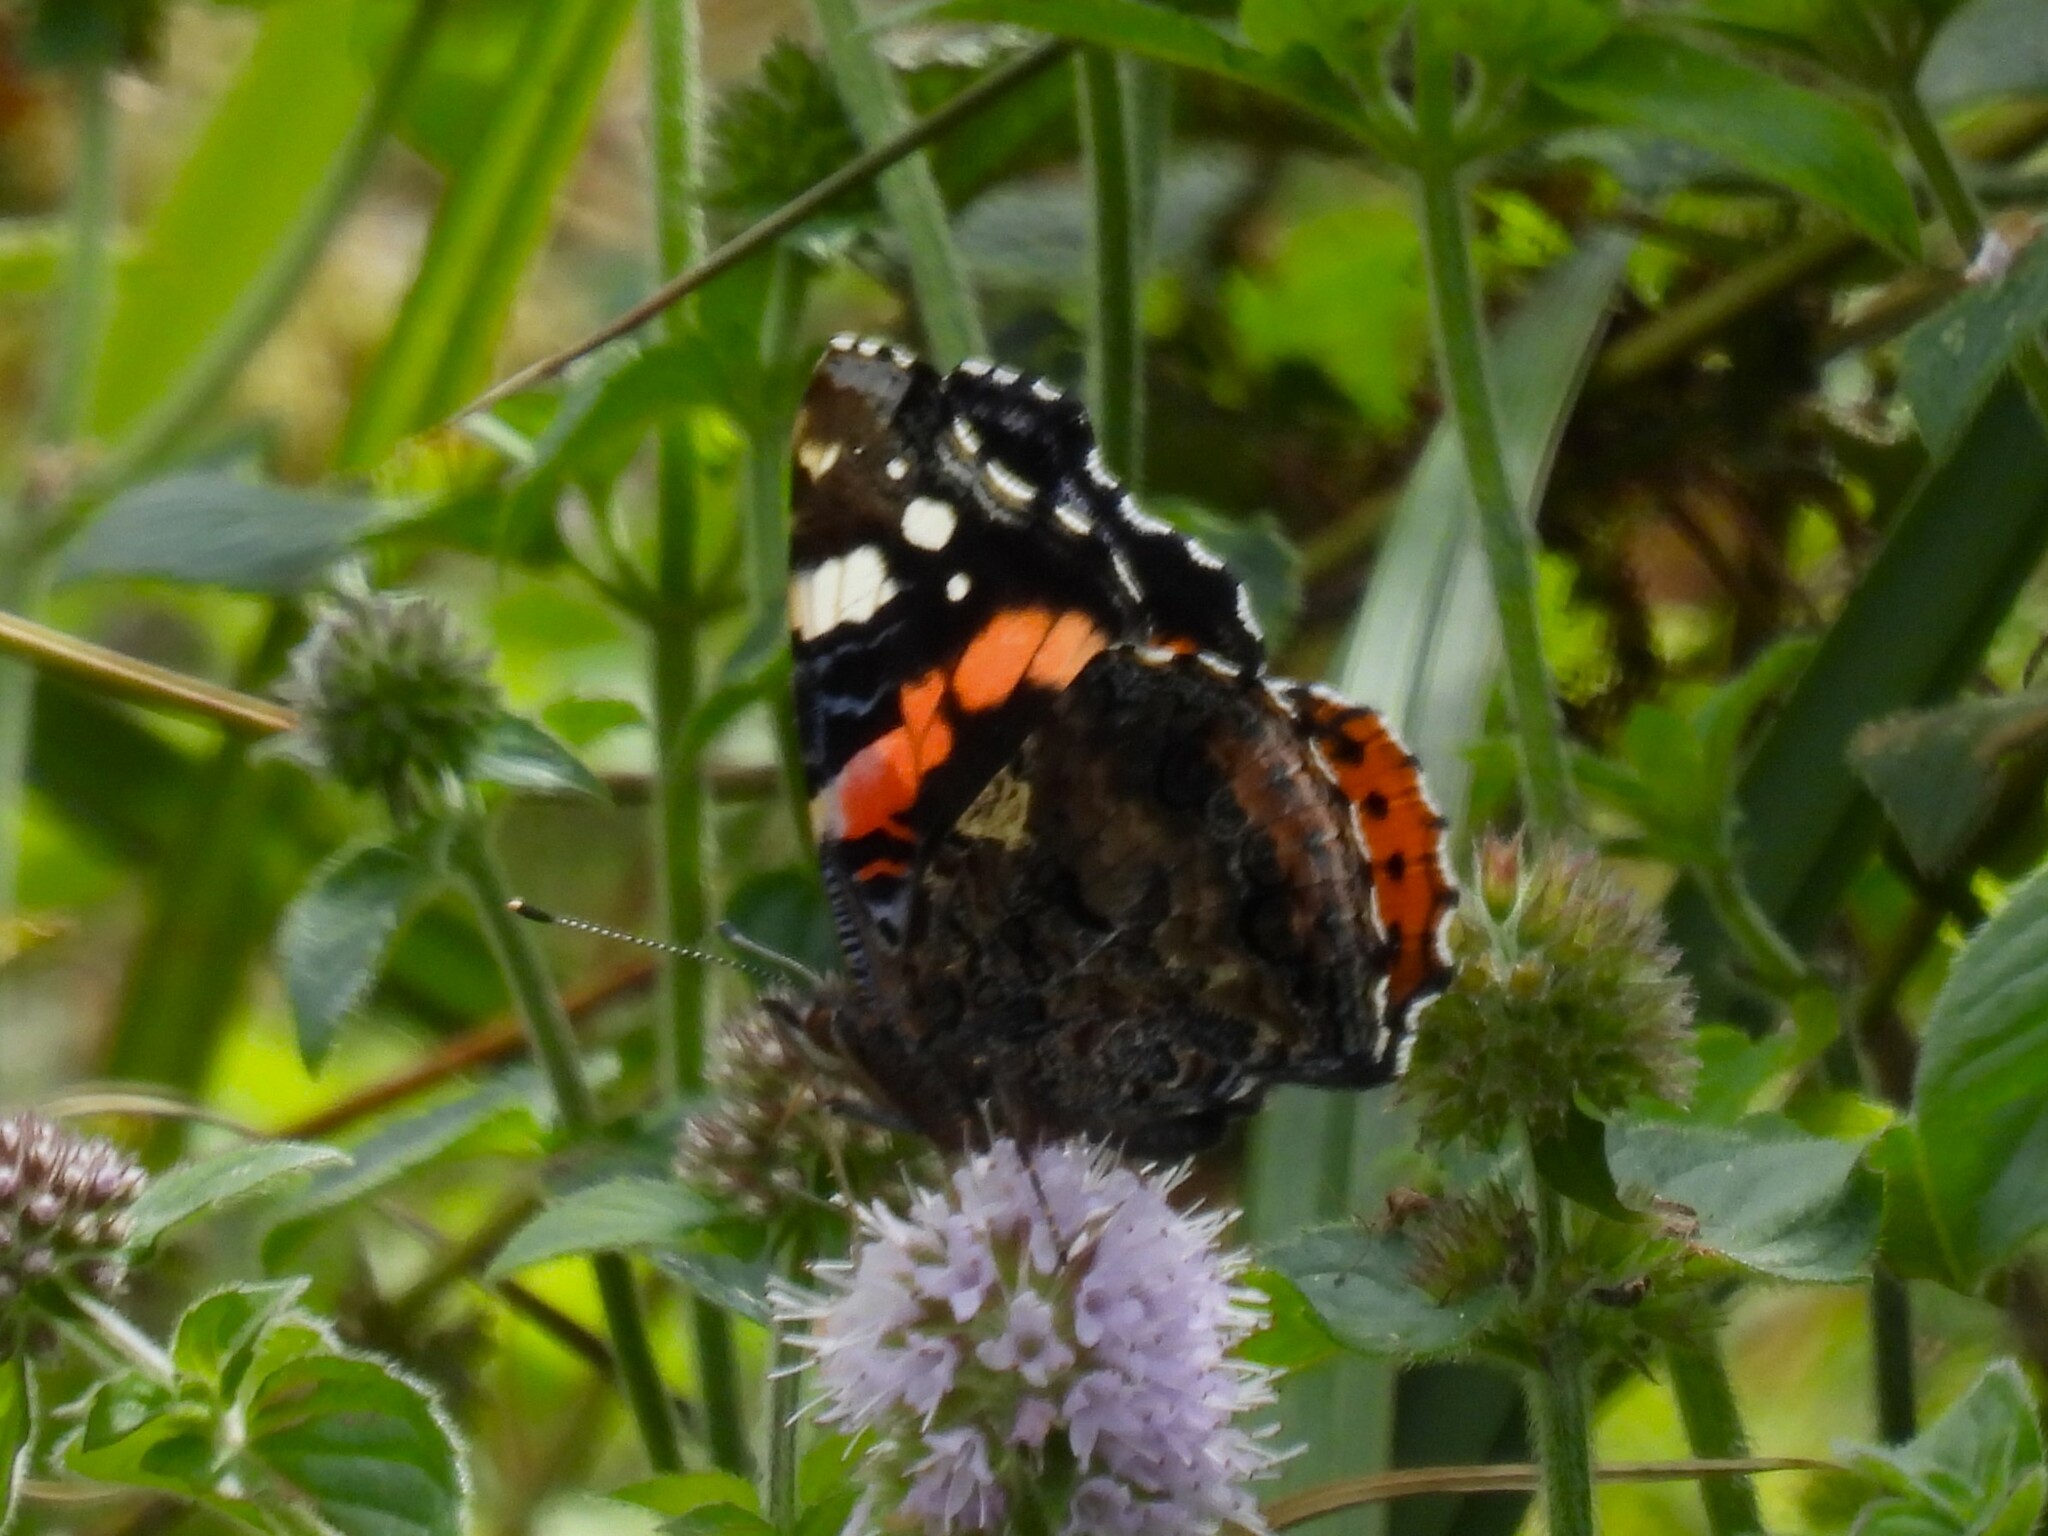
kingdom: Animalia
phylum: Arthropoda
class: Insecta
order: Lepidoptera
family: Nymphalidae
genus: Vanessa
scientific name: Vanessa atalanta
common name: Red admiral
